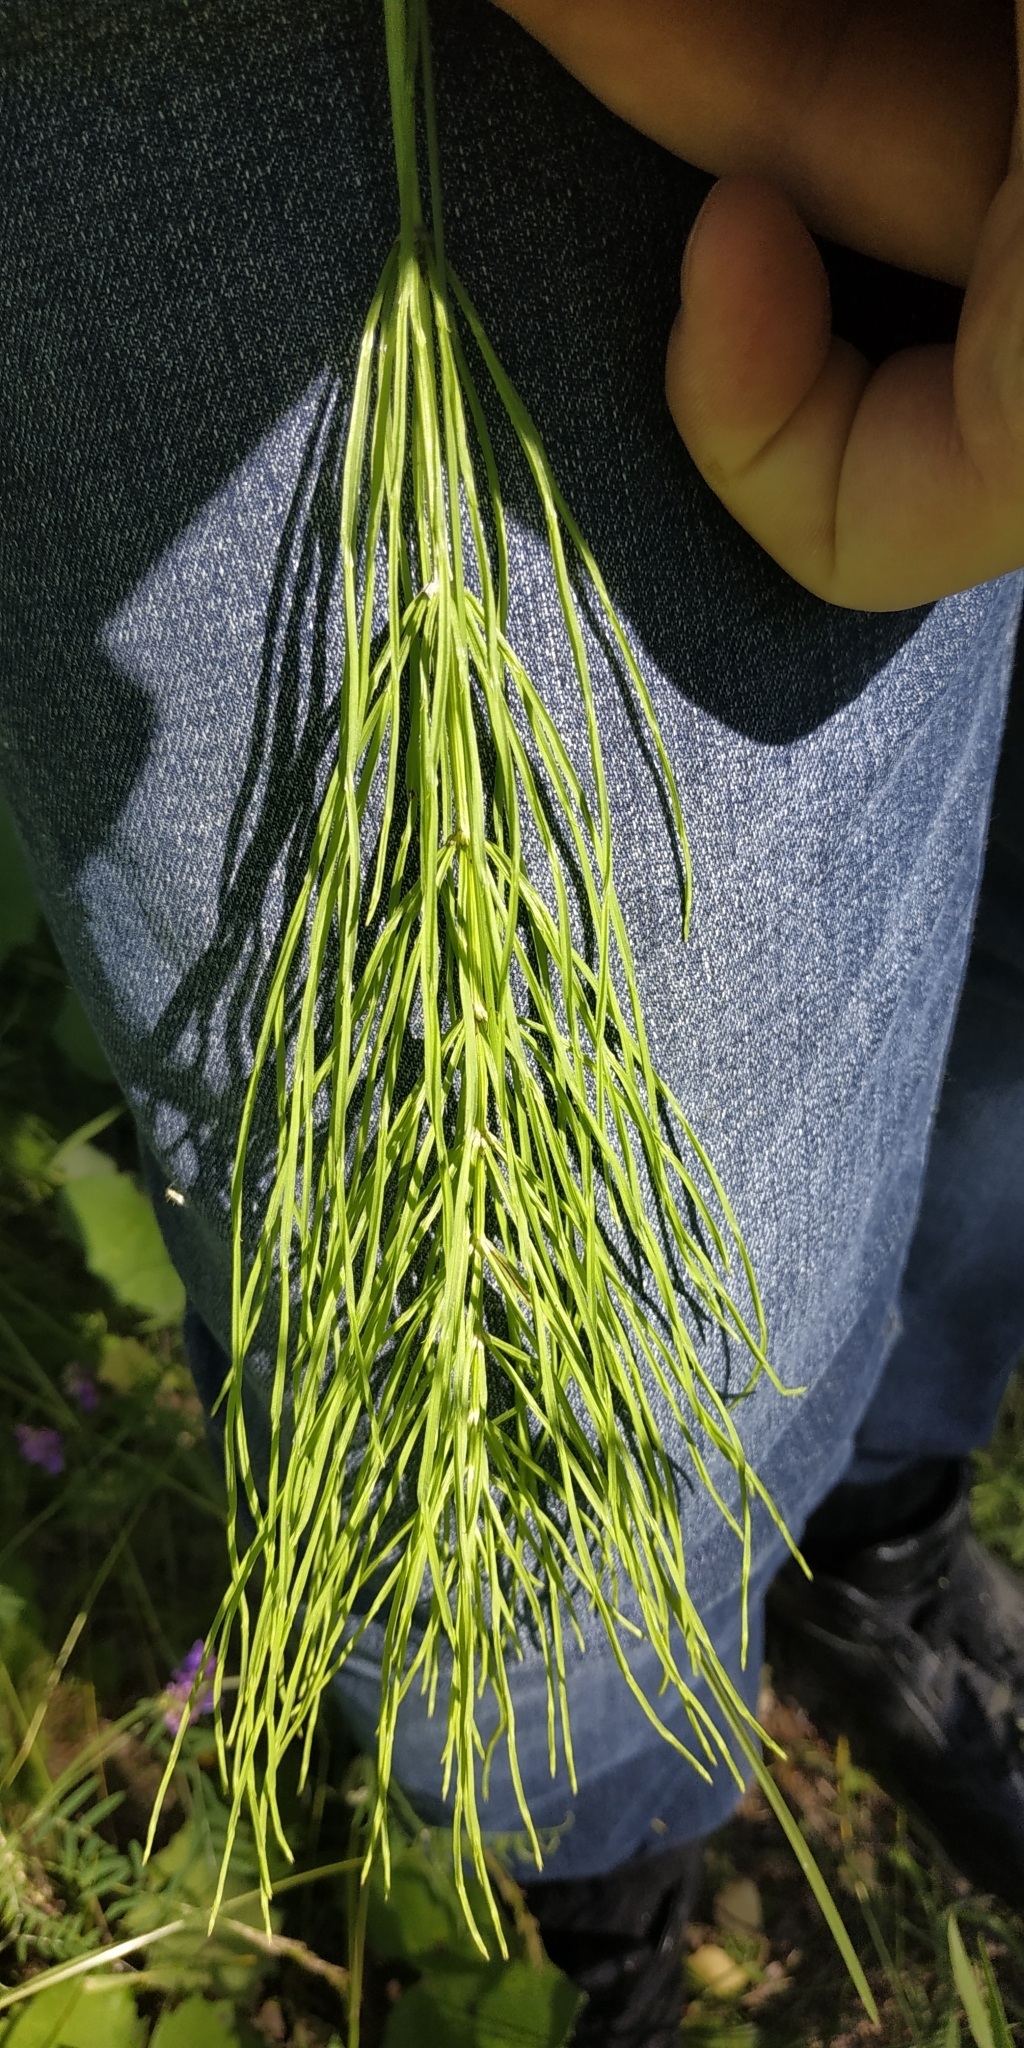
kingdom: Plantae
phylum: Tracheophyta
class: Polypodiopsida
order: Equisetales
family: Equisetaceae
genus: Equisetum
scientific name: Equisetum arvense
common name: Field horsetail
